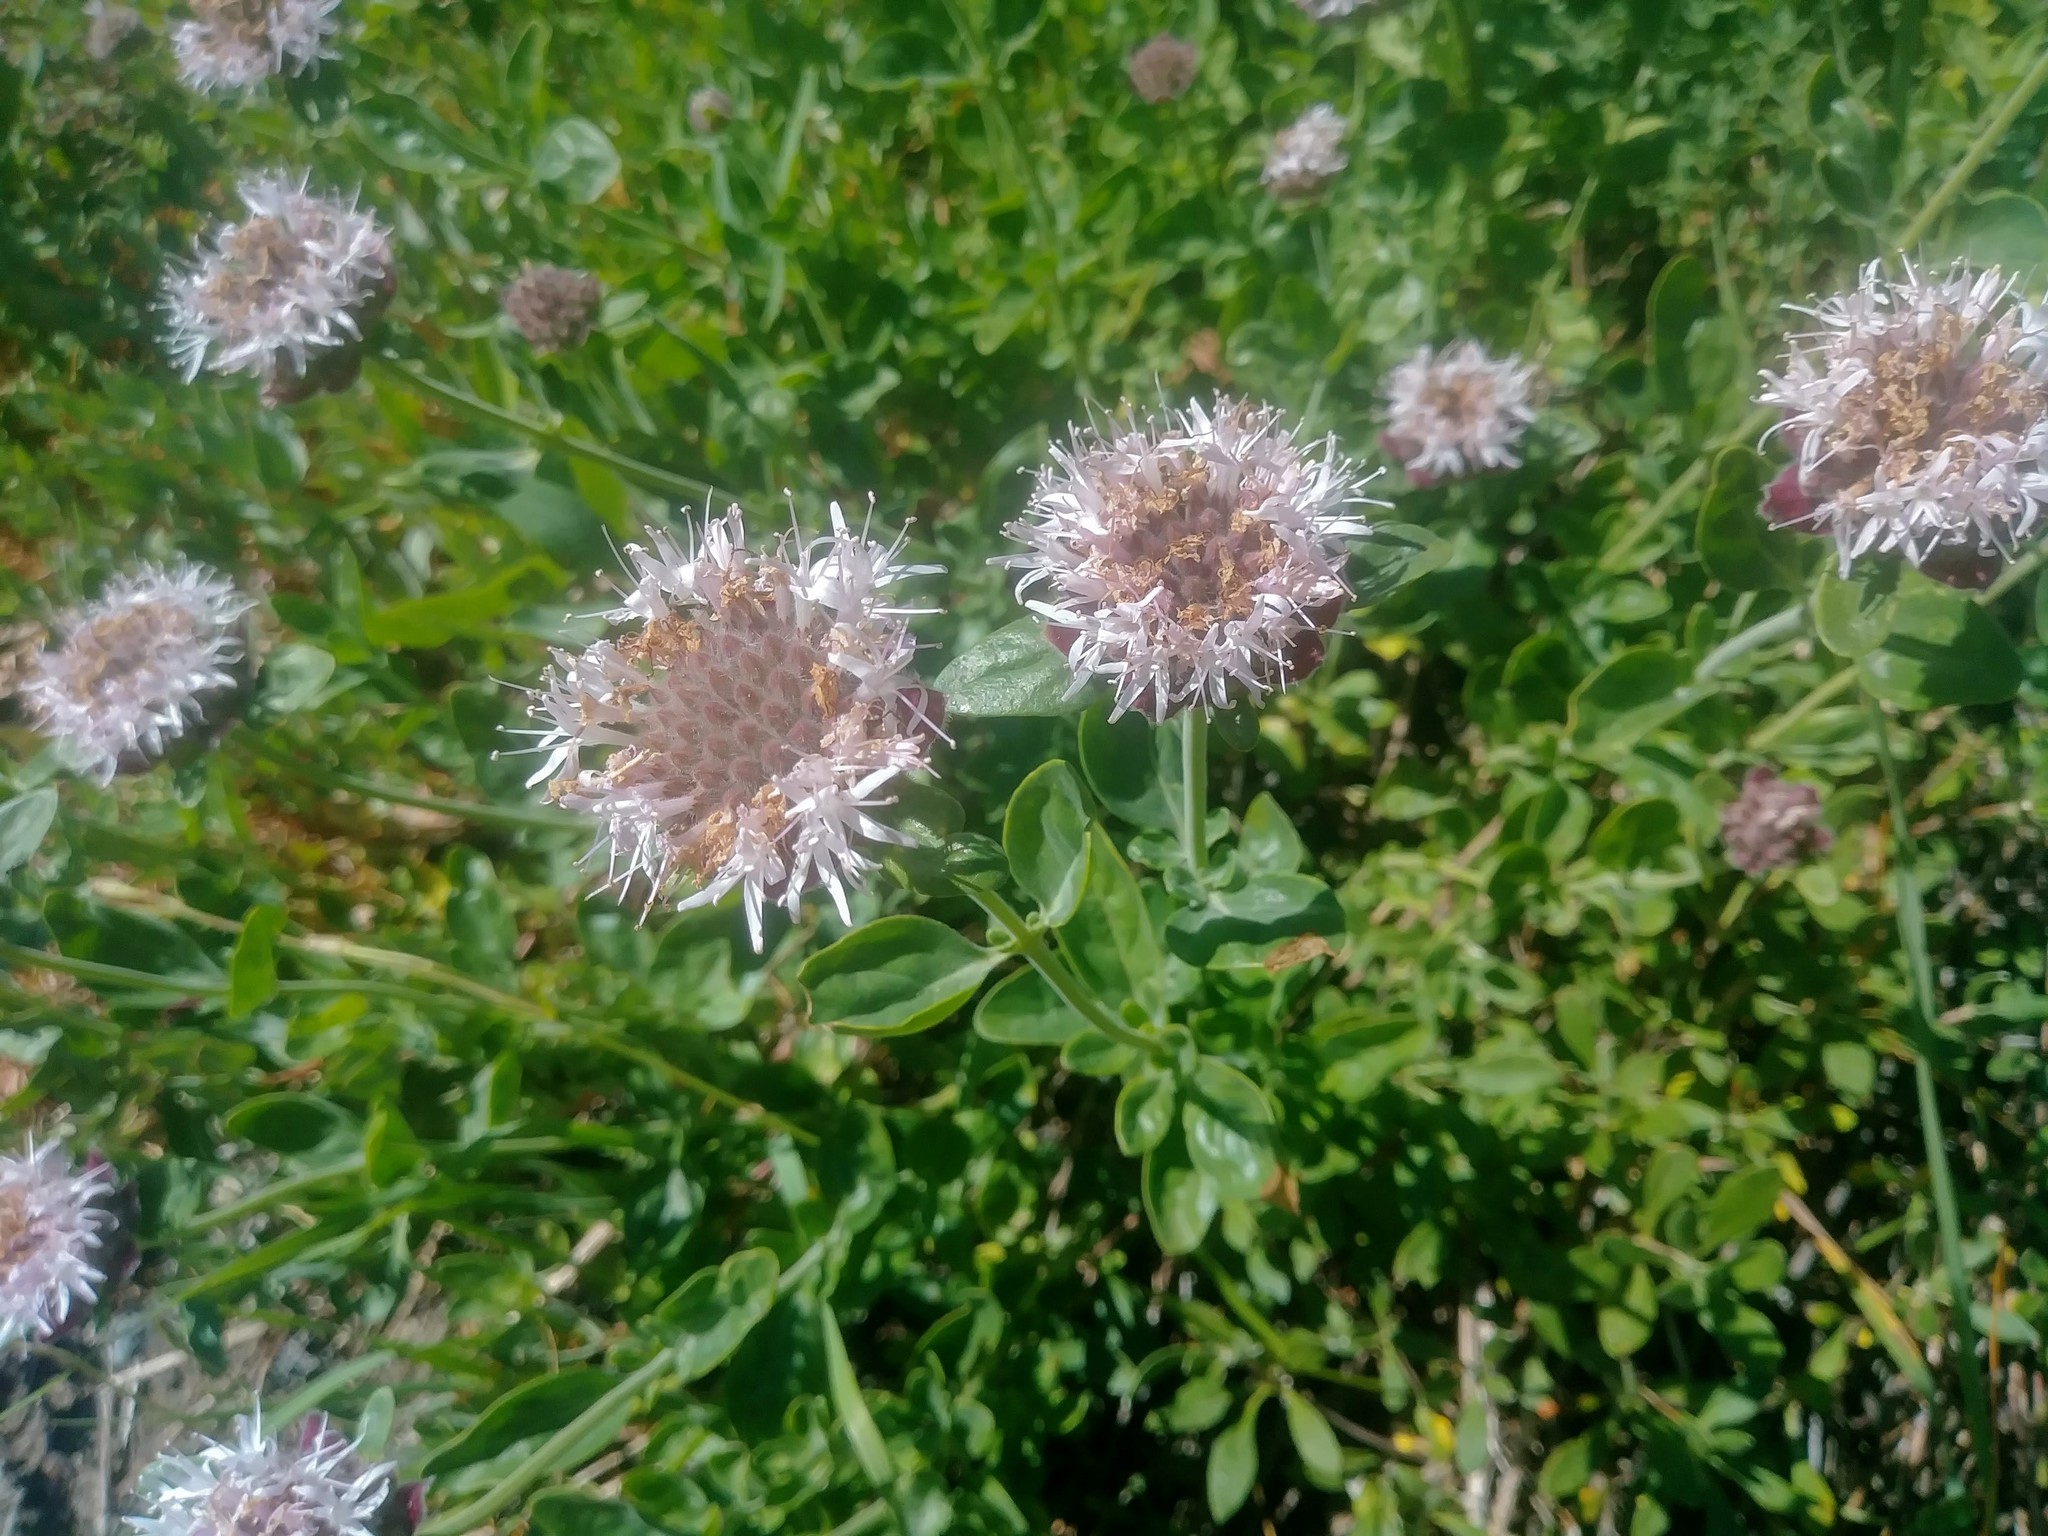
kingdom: Plantae
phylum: Tracheophyta
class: Magnoliopsida
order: Lamiales
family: Lamiaceae
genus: Monardella
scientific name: Monardella odoratissima
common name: Pacific monardella
